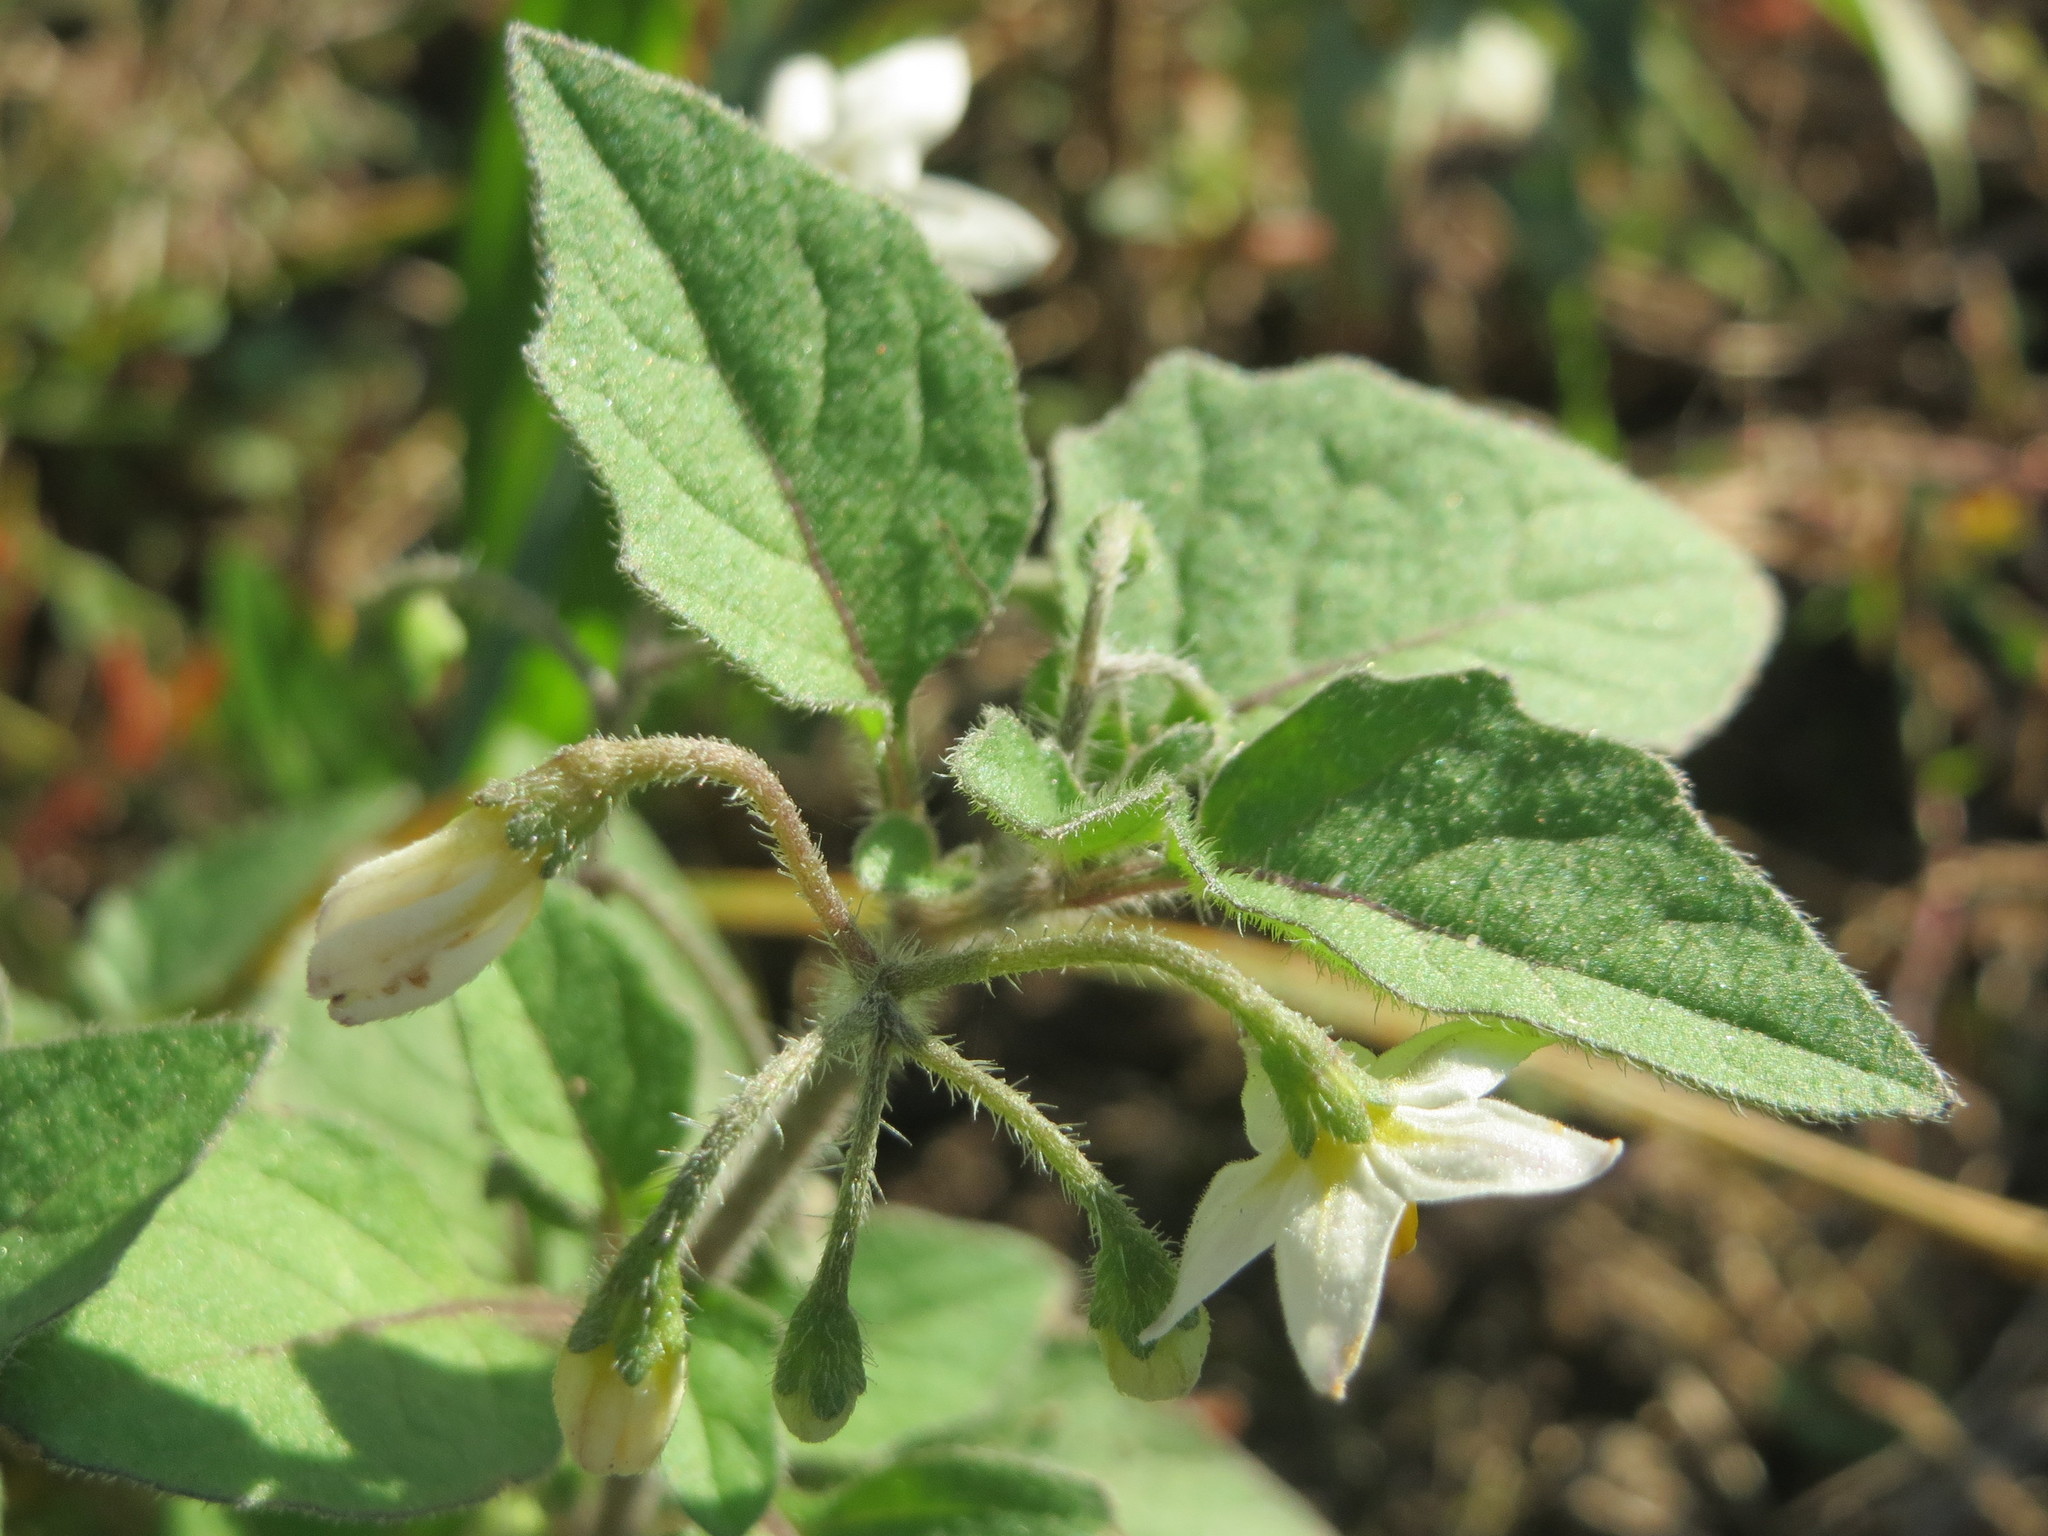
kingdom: Plantae
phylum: Tracheophyta
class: Magnoliopsida
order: Solanales
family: Solanaceae
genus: Solanum
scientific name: Solanum nigrum
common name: Black nightshade
